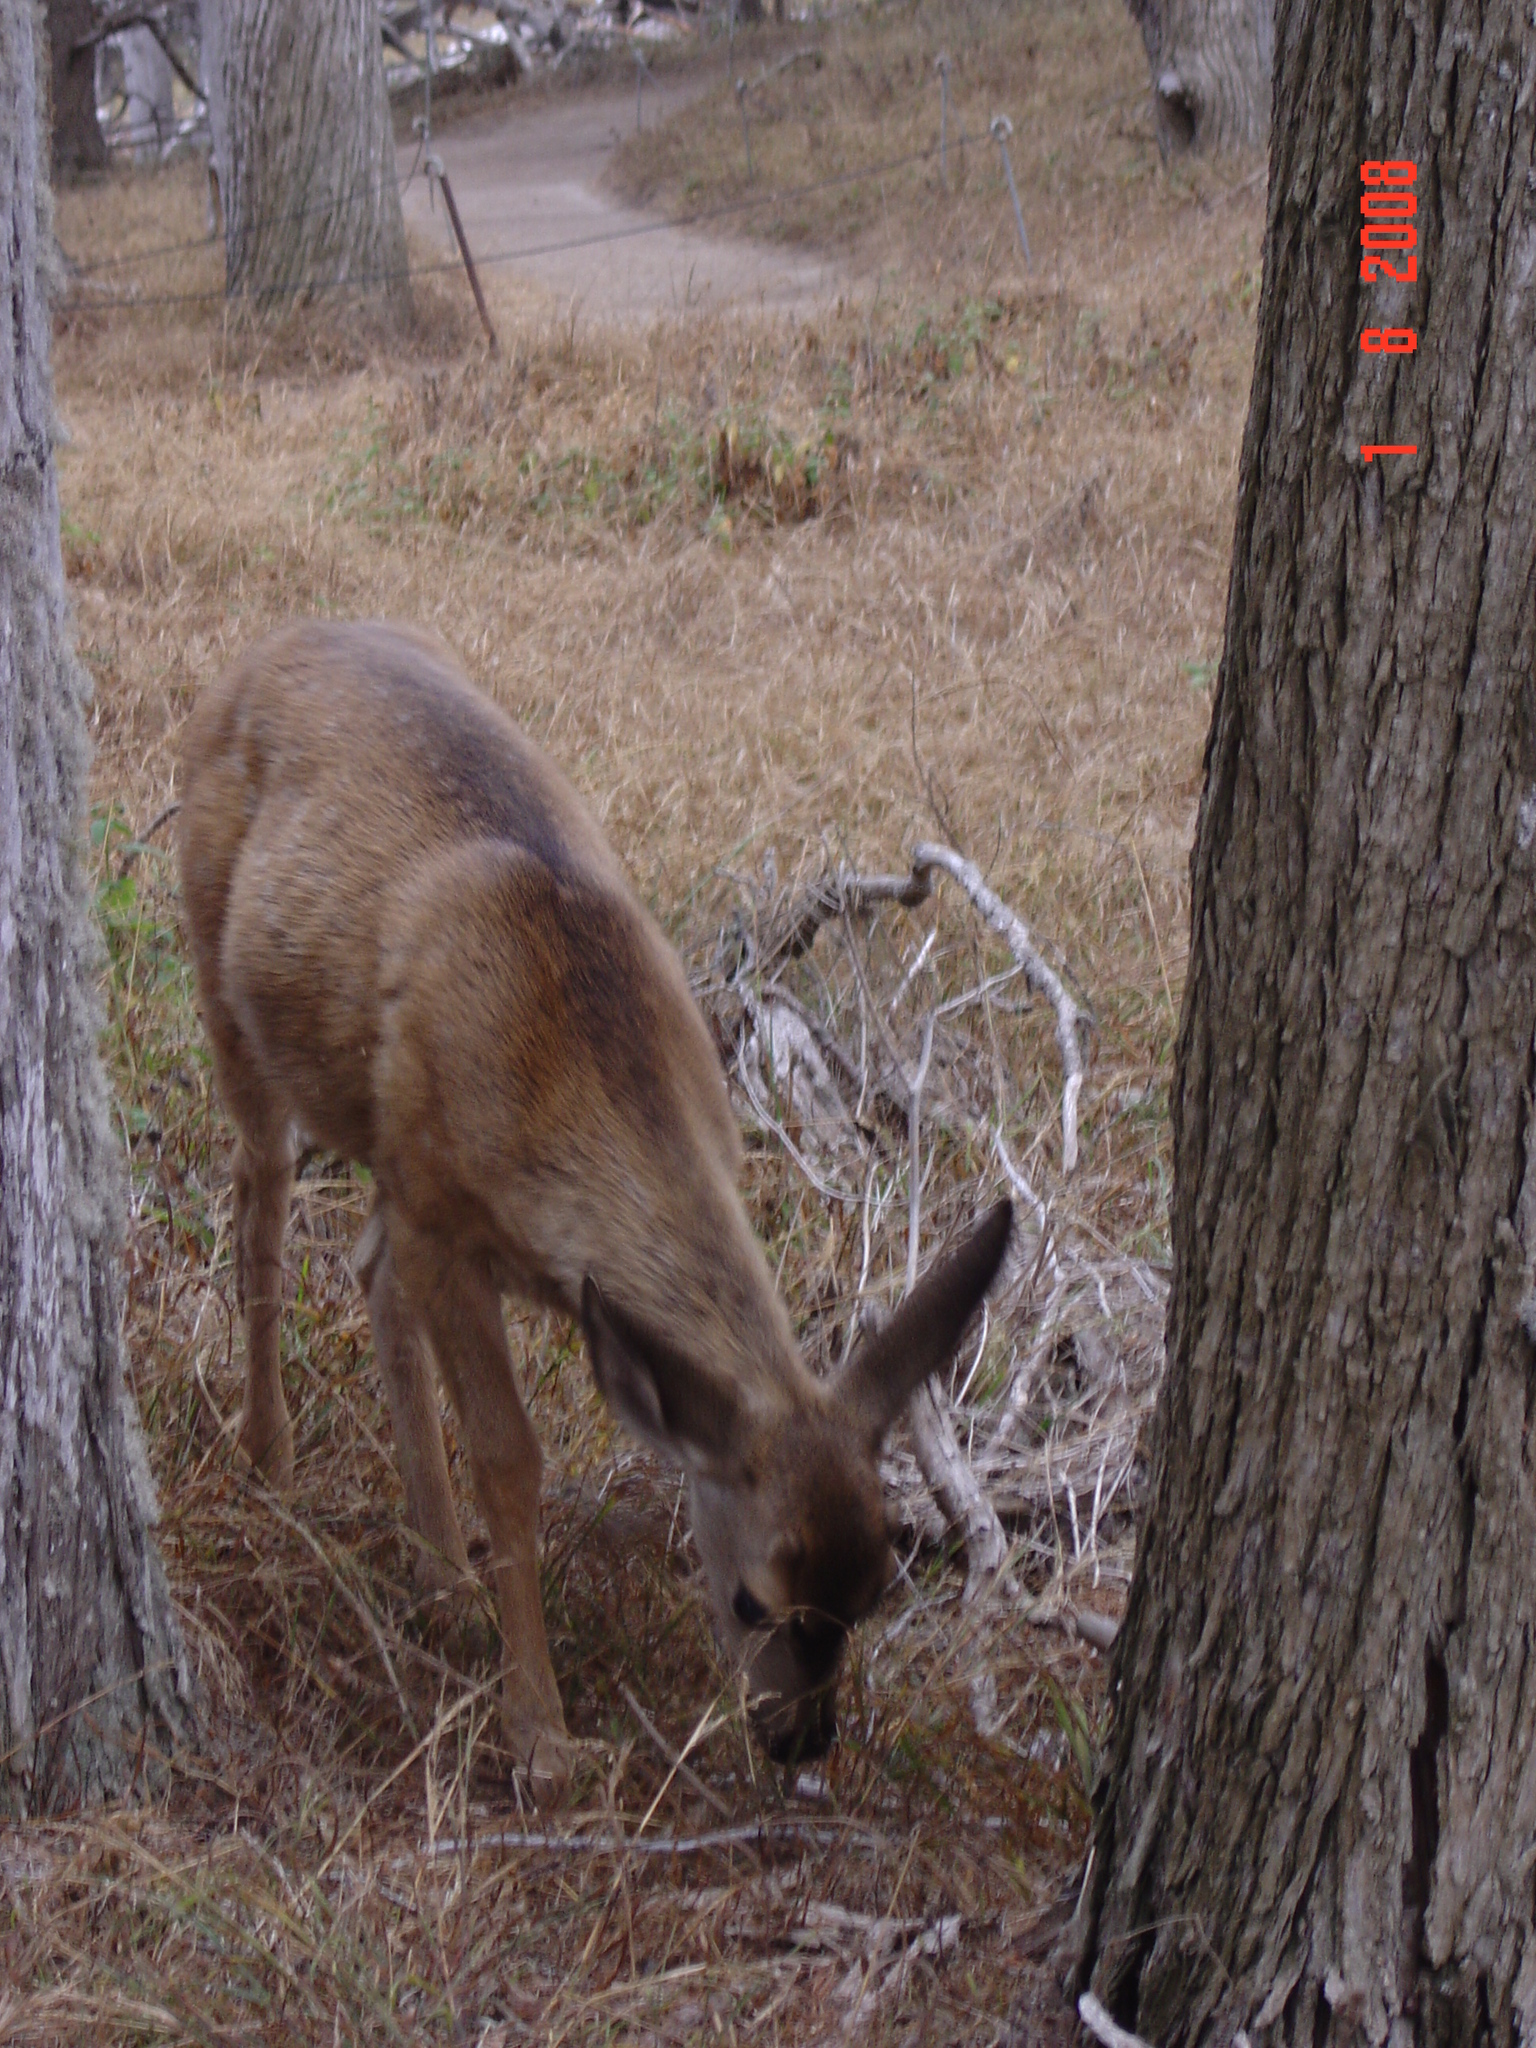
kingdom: Animalia
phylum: Chordata
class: Mammalia
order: Artiodactyla
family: Cervidae
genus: Odocoileus
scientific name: Odocoileus hemionus
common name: Mule deer
